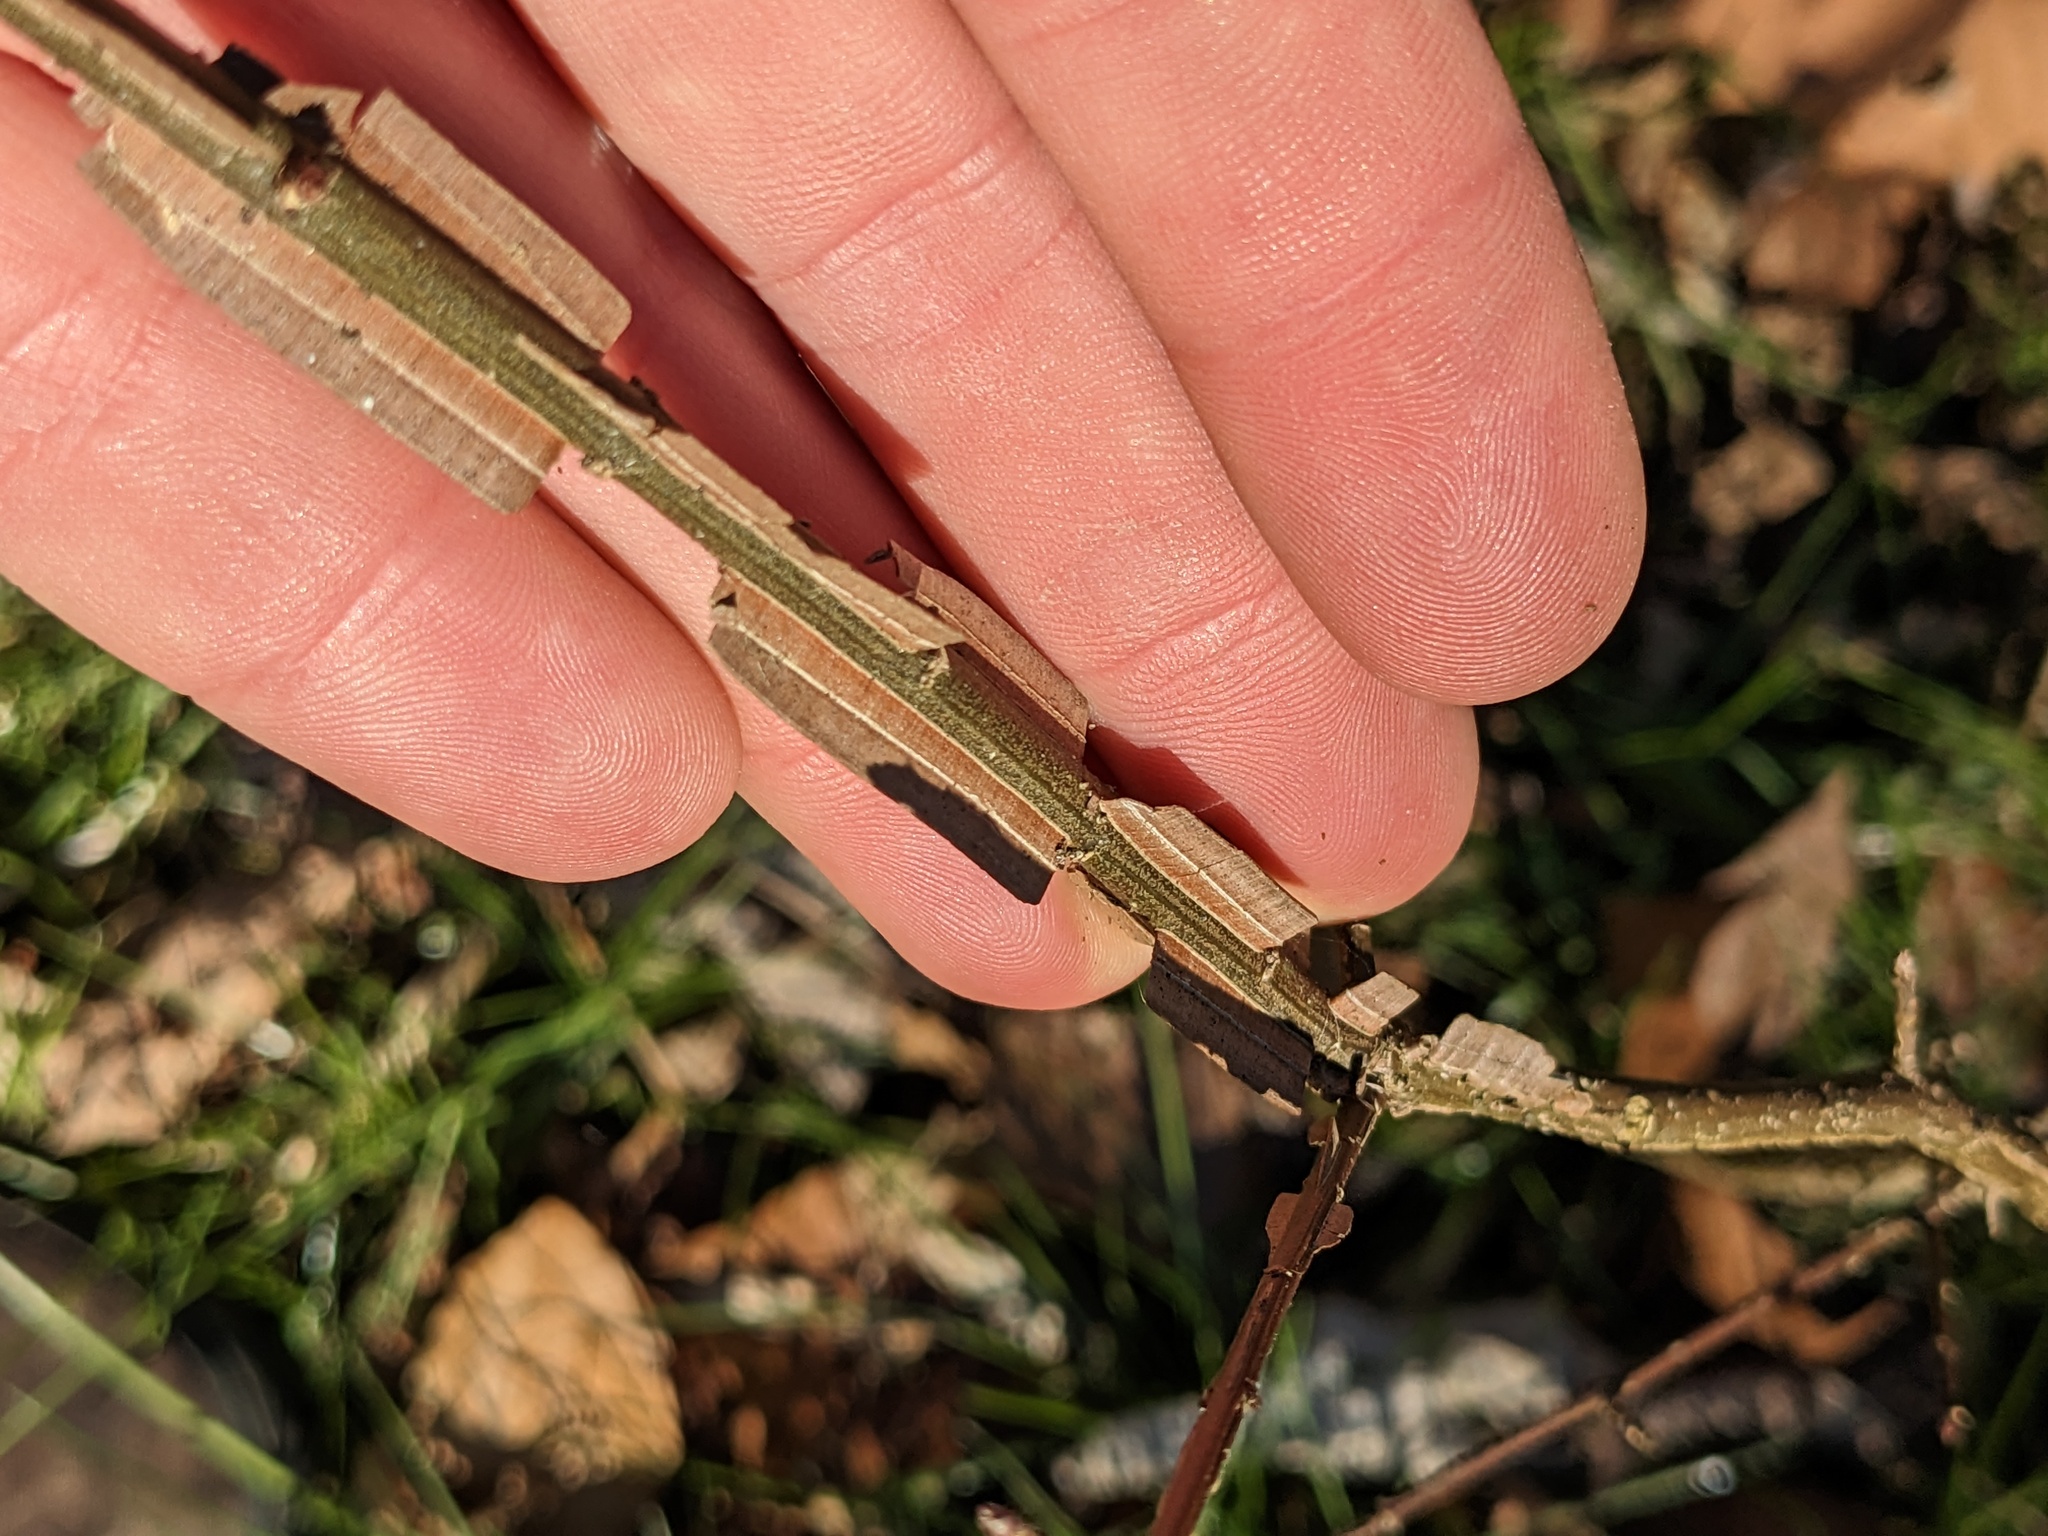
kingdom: Plantae
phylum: Tracheophyta
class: Magnoliopsida
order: Celastrales
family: Celastraceae
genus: Euonymus
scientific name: Euonymus alatus
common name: Winged euonymus
